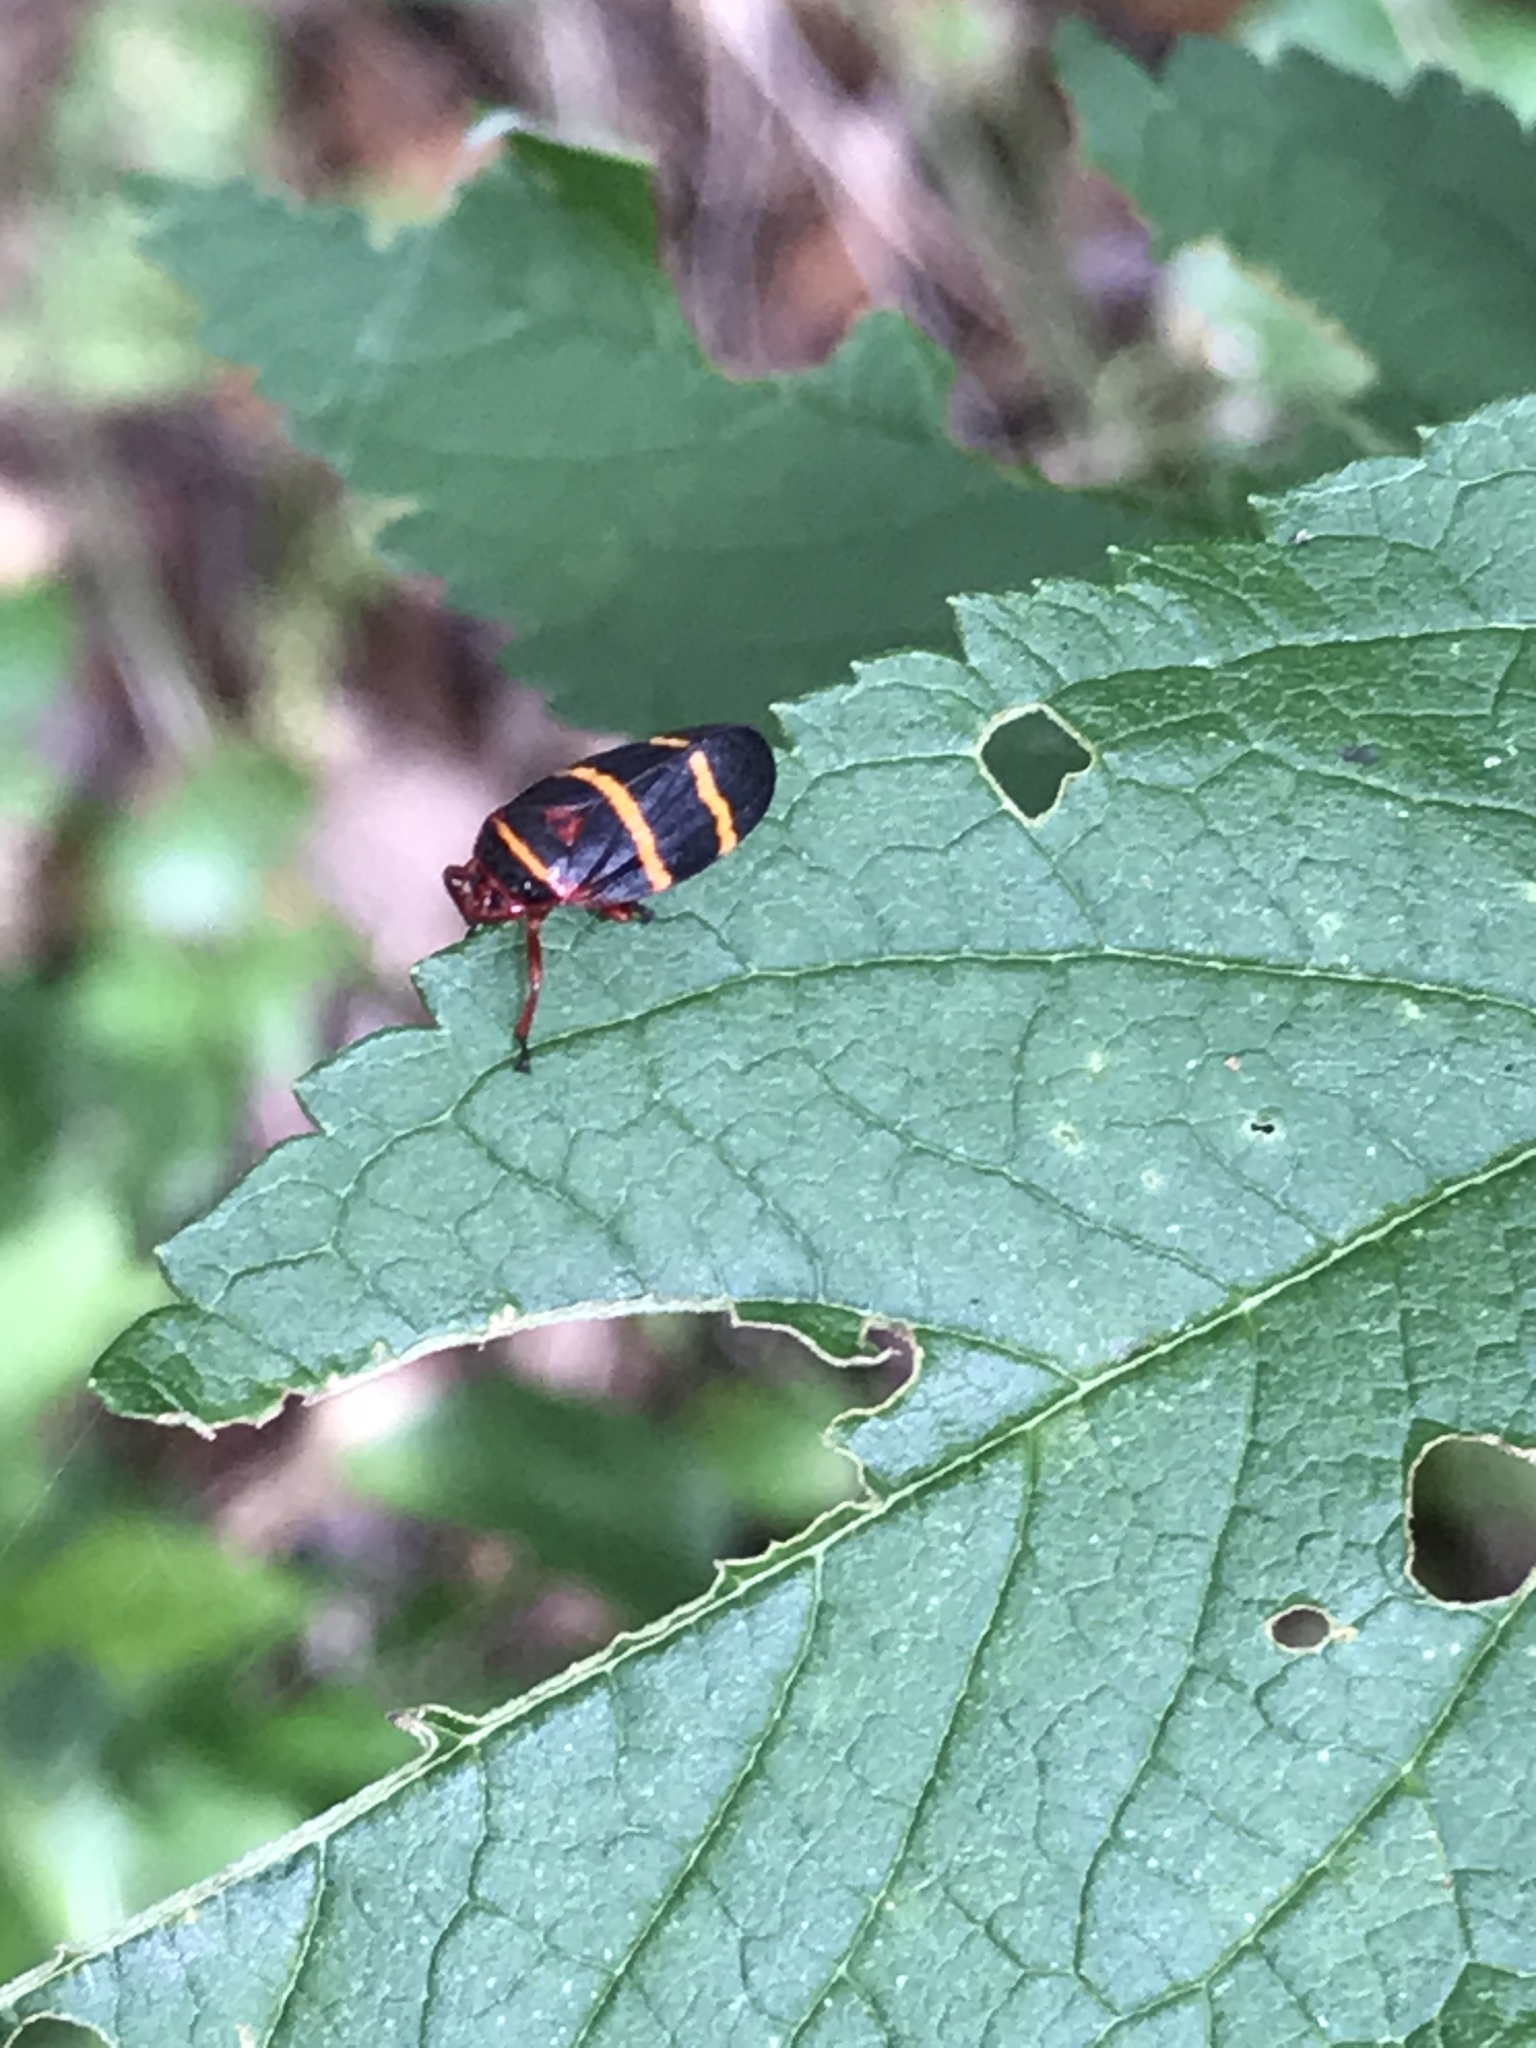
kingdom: Animalia
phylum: Arthropoda
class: Insecta
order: Hemiptera
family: Cercopidae
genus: Prosapia
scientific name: Prosapia bicincta
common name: Twolined spittlebug
